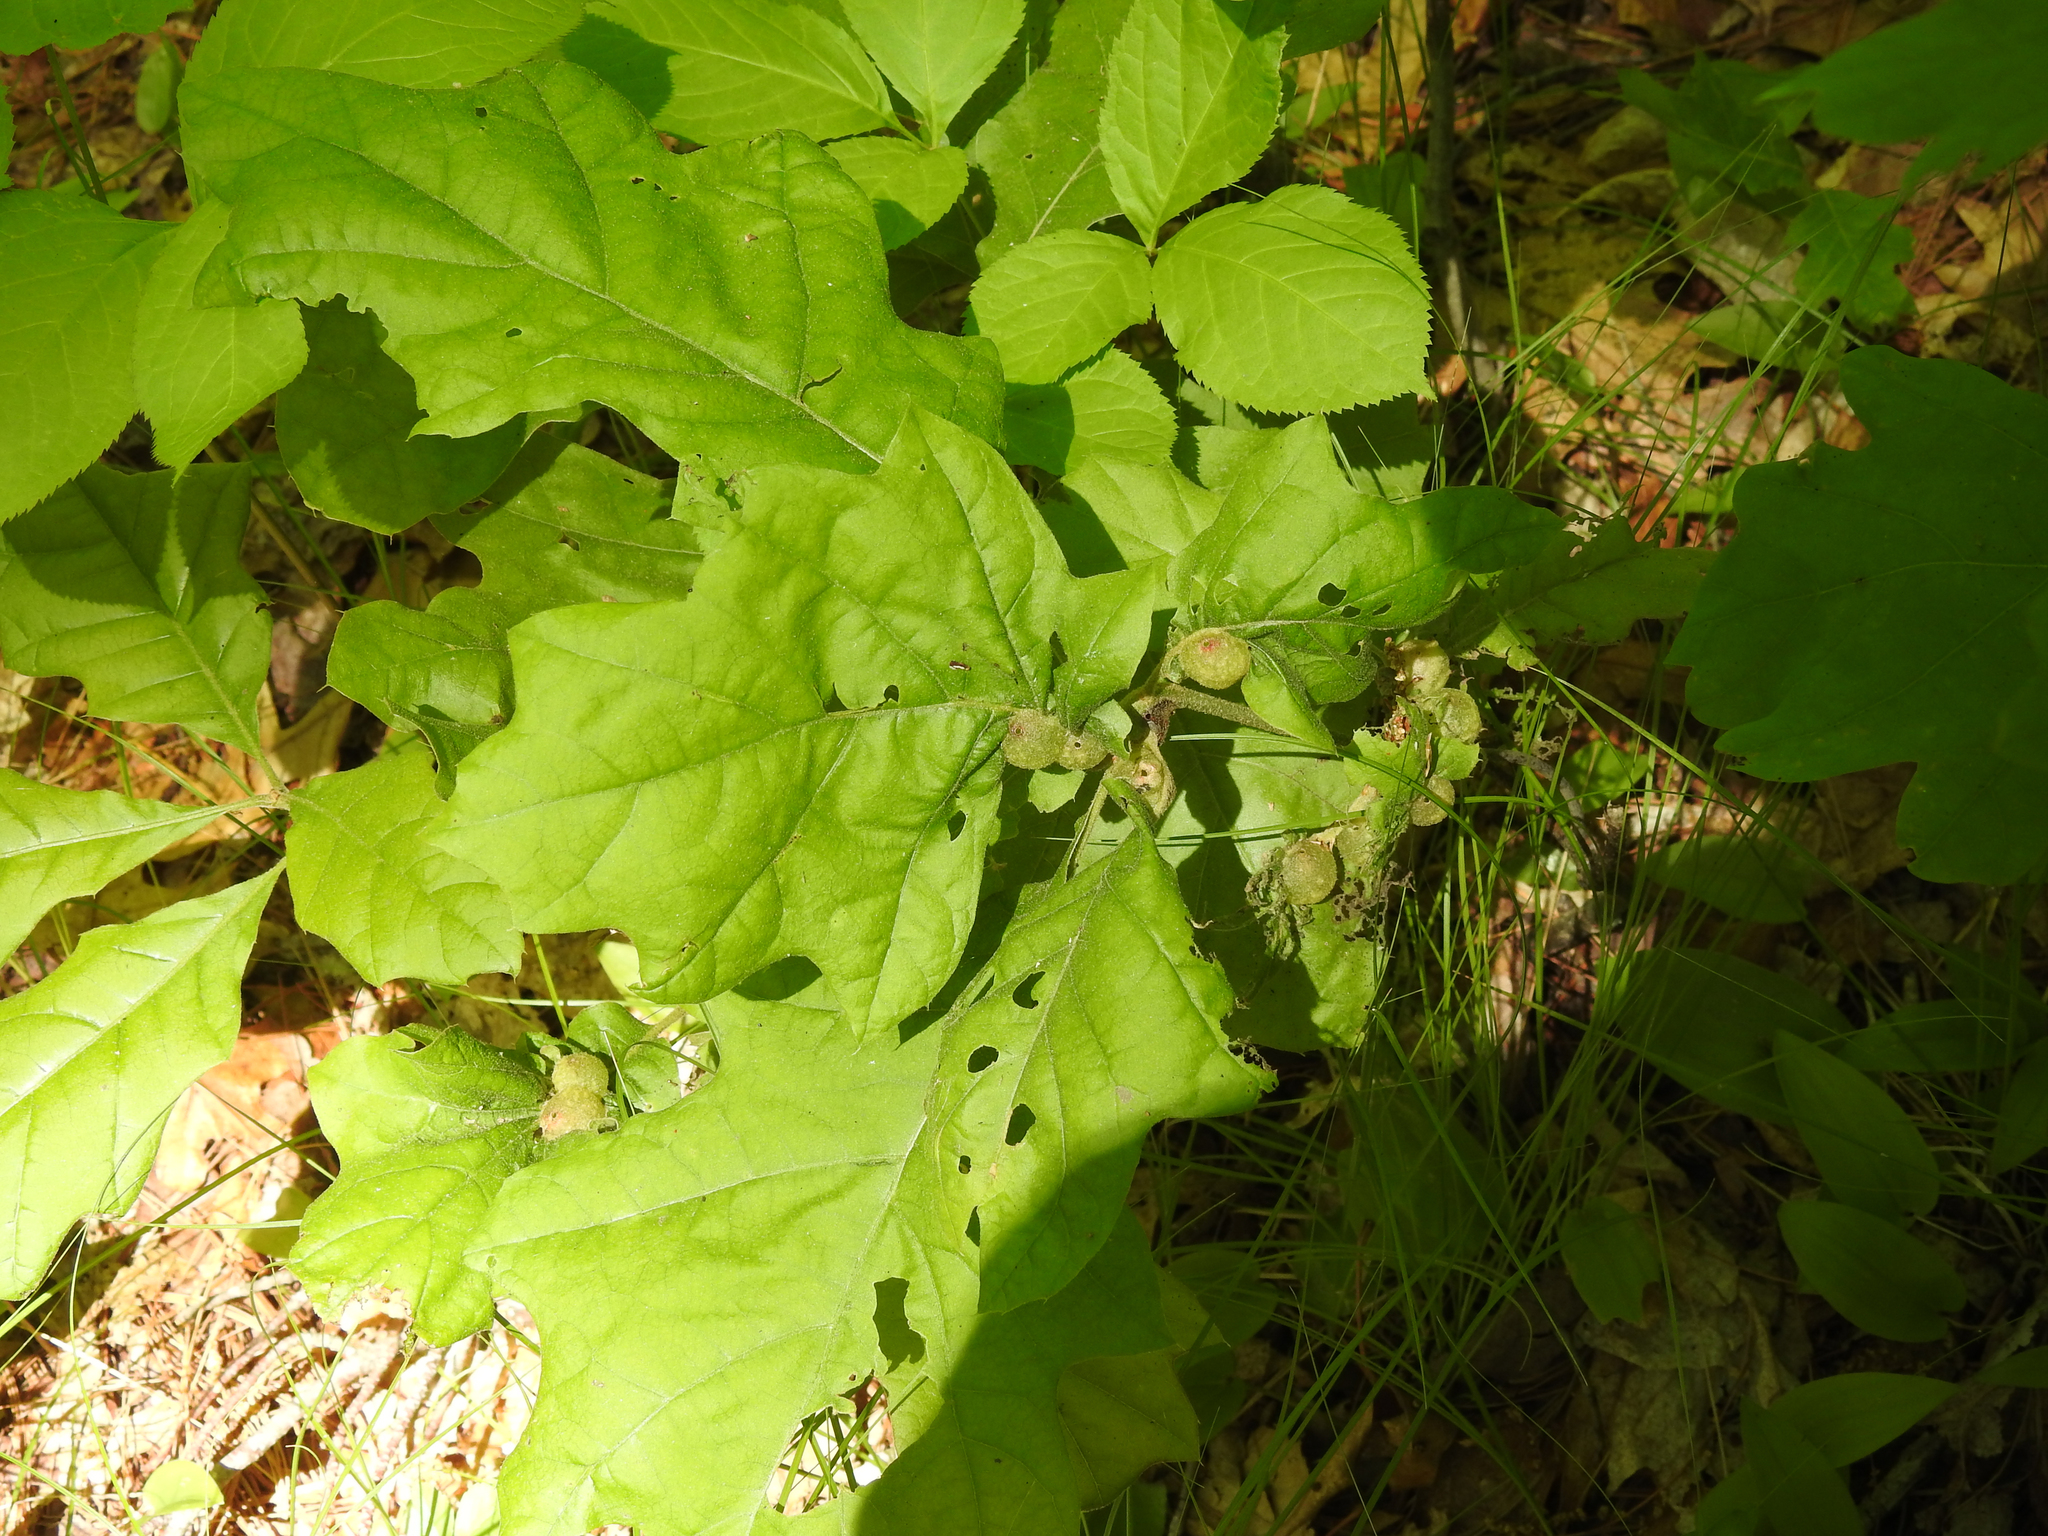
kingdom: Animalia
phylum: Arthropoda
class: Insecta
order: Hymenoptera
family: Cynipidae
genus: Dryocosmus
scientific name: Dryocosmus quercuspalustris
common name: Succulent oak gall wasp
